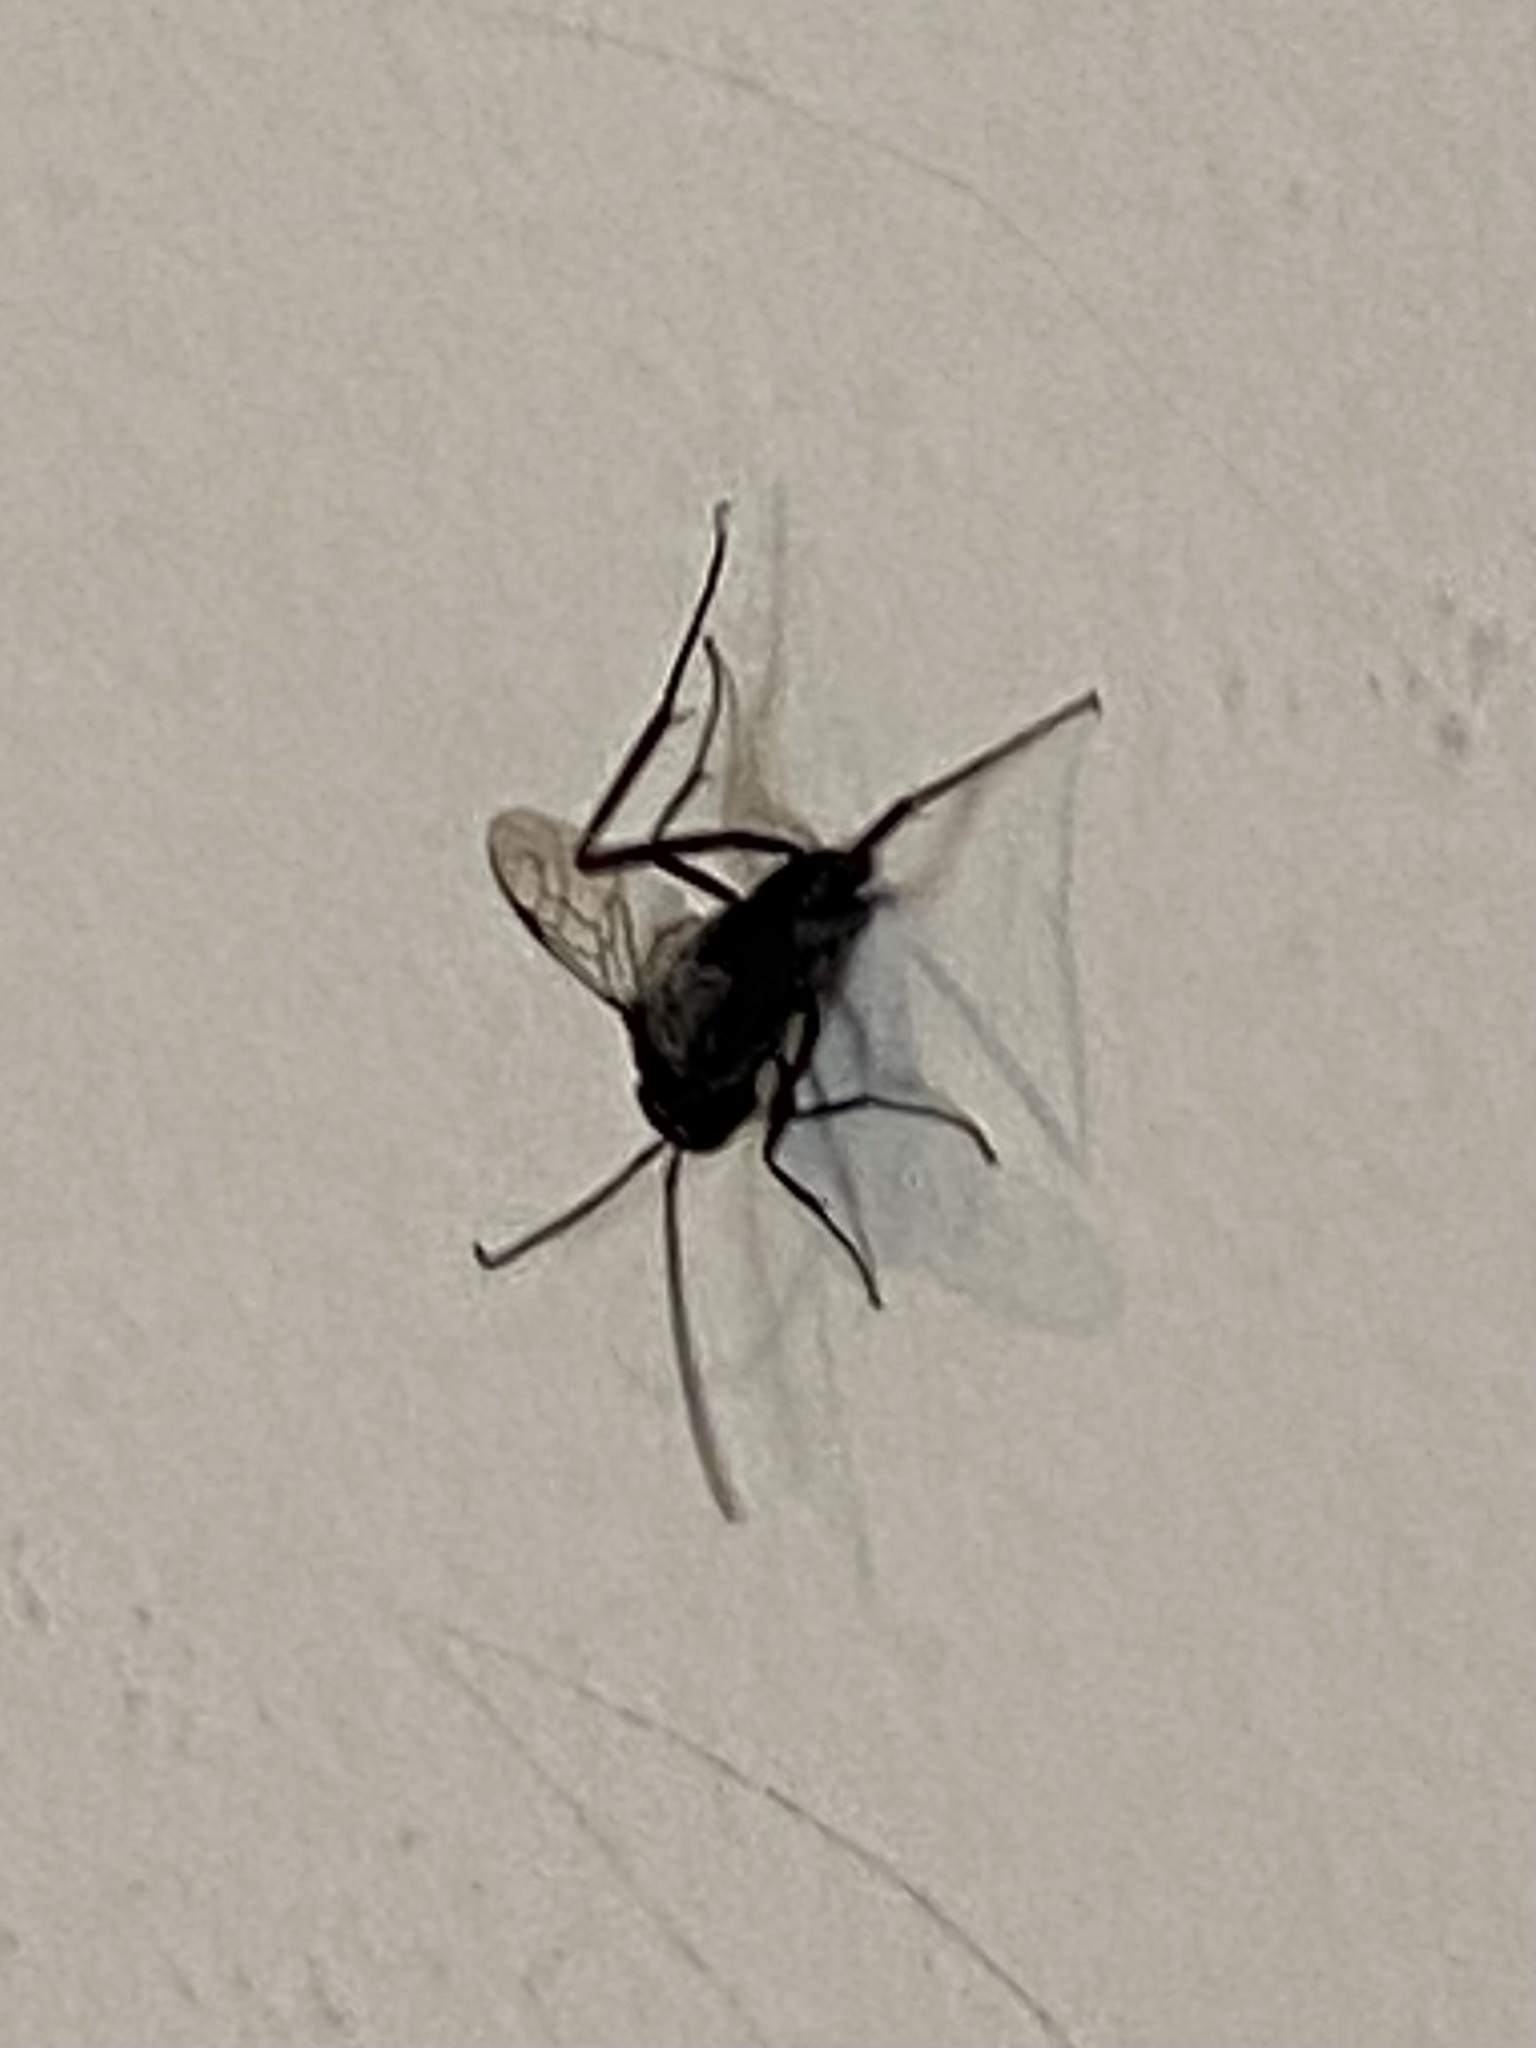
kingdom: Animalia
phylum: Arthropoda
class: Insecta
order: Hymenoptera
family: Evaniidae
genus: Evania
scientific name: Evania appendigaster
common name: Ensign wasp
